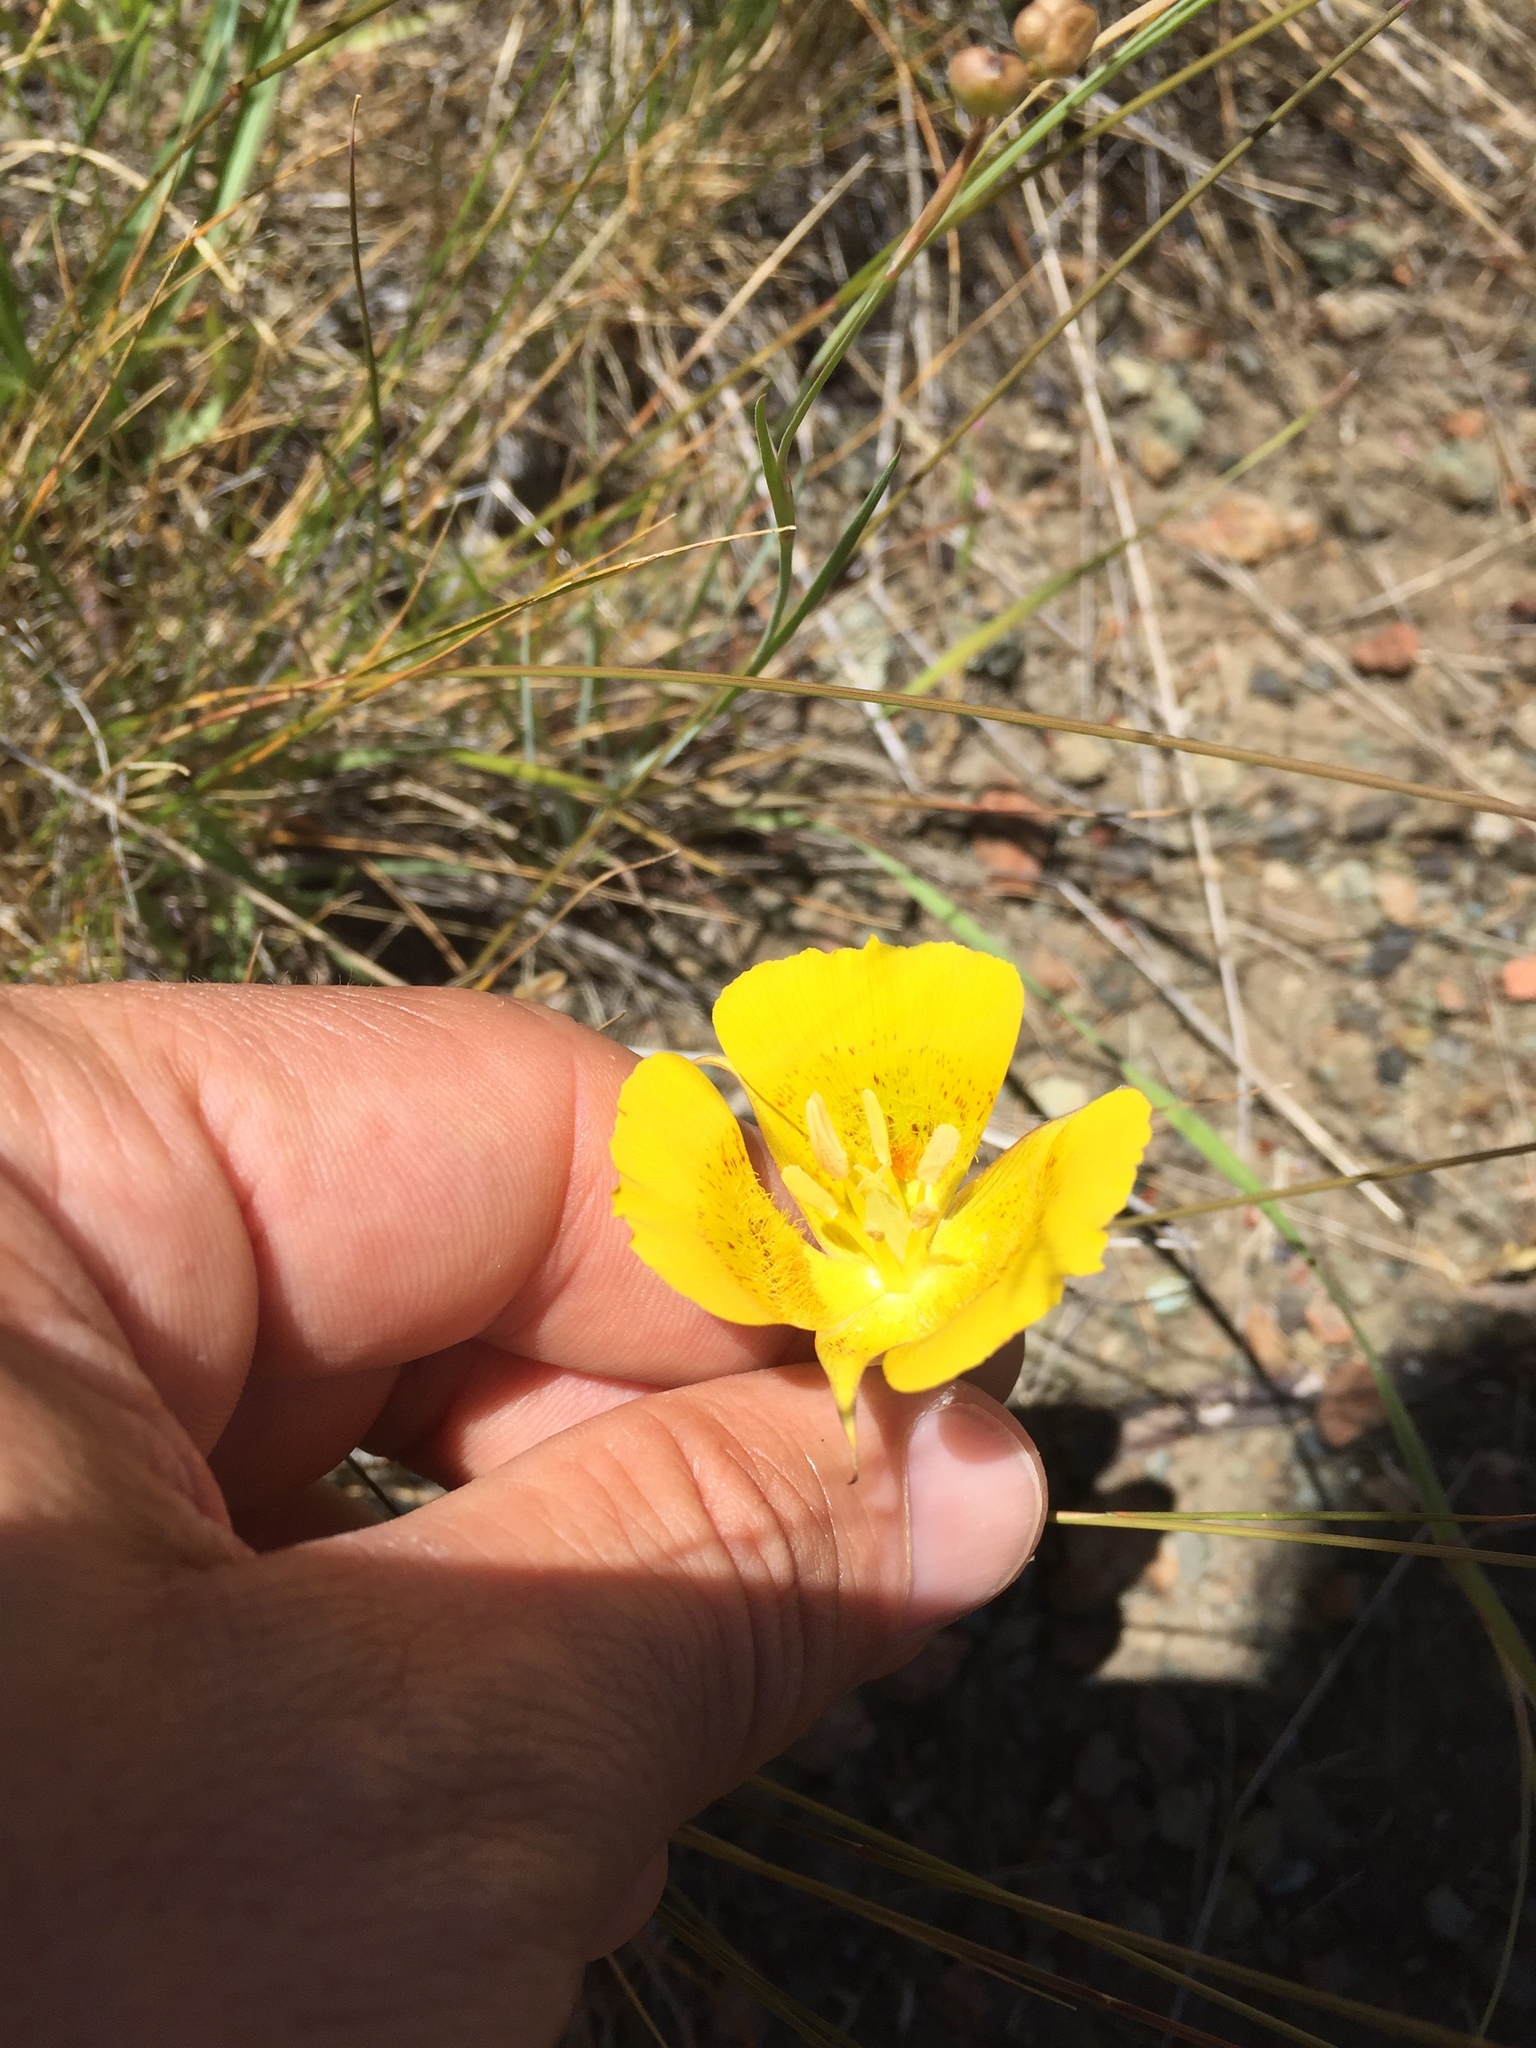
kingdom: Plantae
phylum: Tracheophyta
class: Liliopsida
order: Liliales
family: Liliaceae
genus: Calochortus
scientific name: Calochortus luteus
